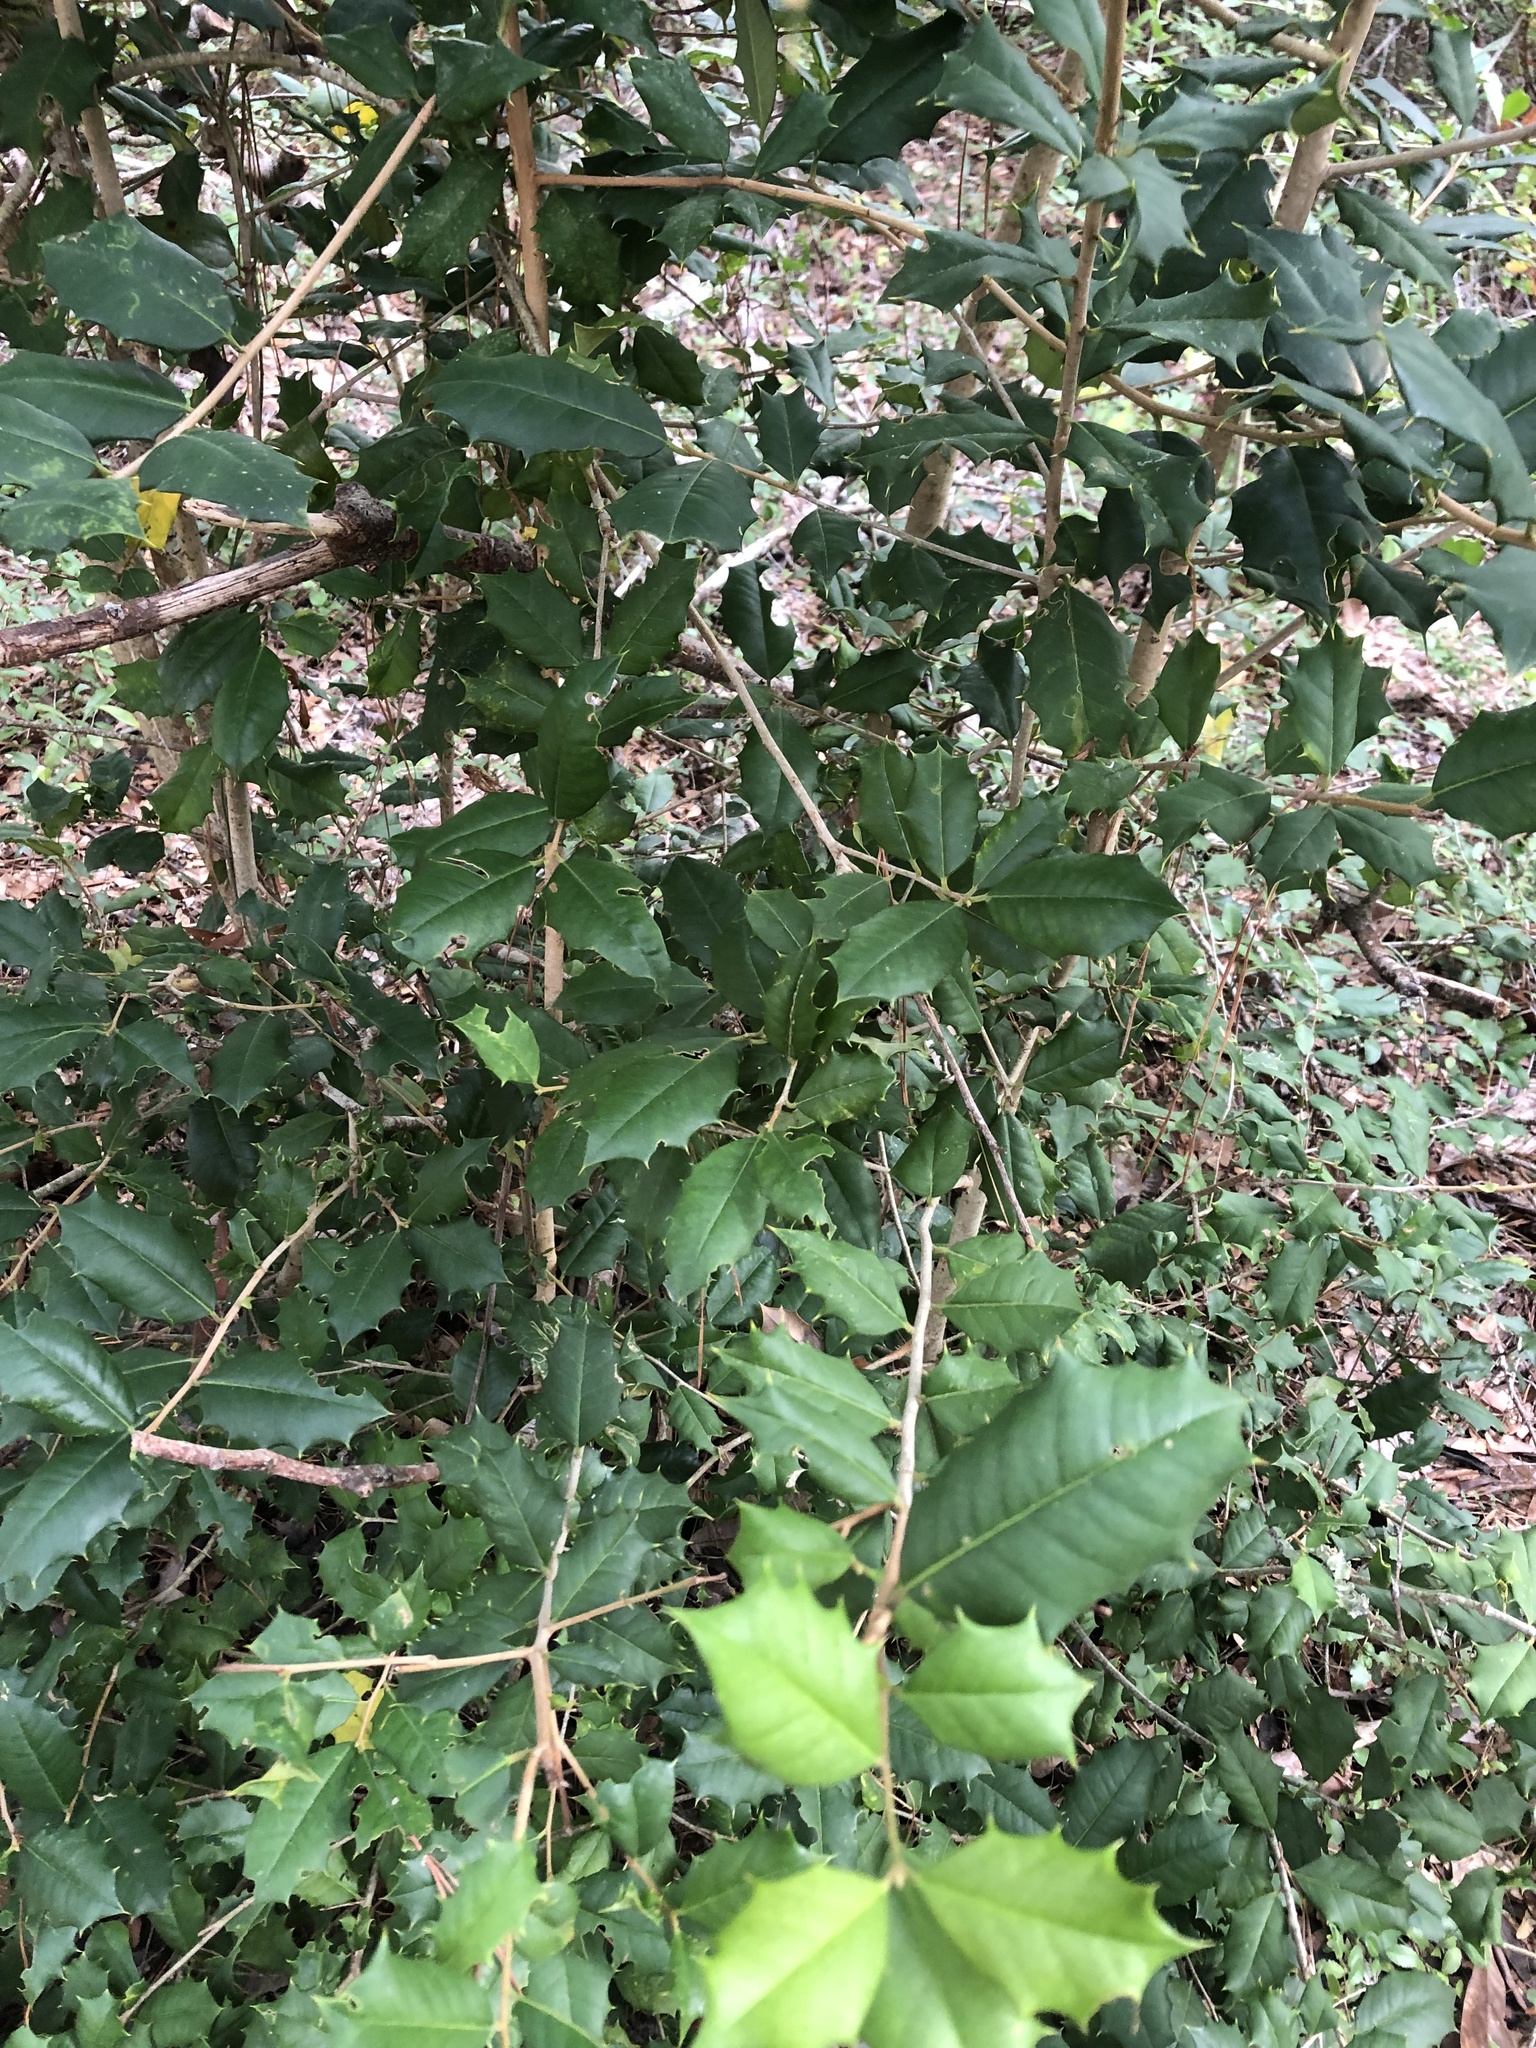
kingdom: Plantae
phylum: Tracheophyta
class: Magnoliopsida
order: Aquifoliales
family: Aquifoliaceae
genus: Ilex
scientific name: Ilex opaca
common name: American holly
